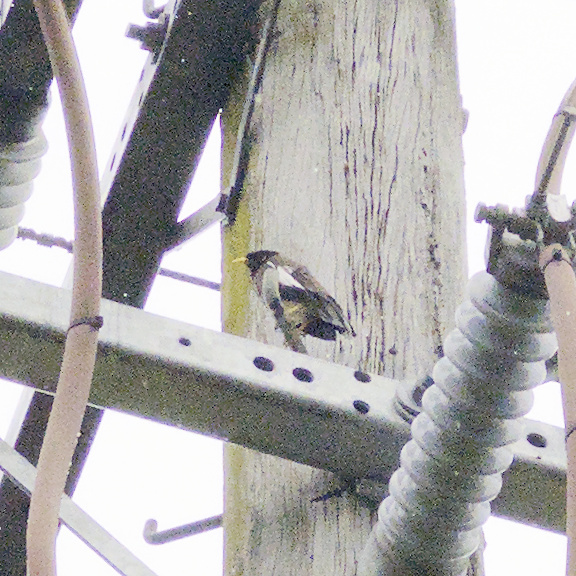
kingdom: Animalia
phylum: Chordata
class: Aves
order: Passeriformes
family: Sturnidae
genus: Acridotheres
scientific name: Acridotheres tristis
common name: Common myna
